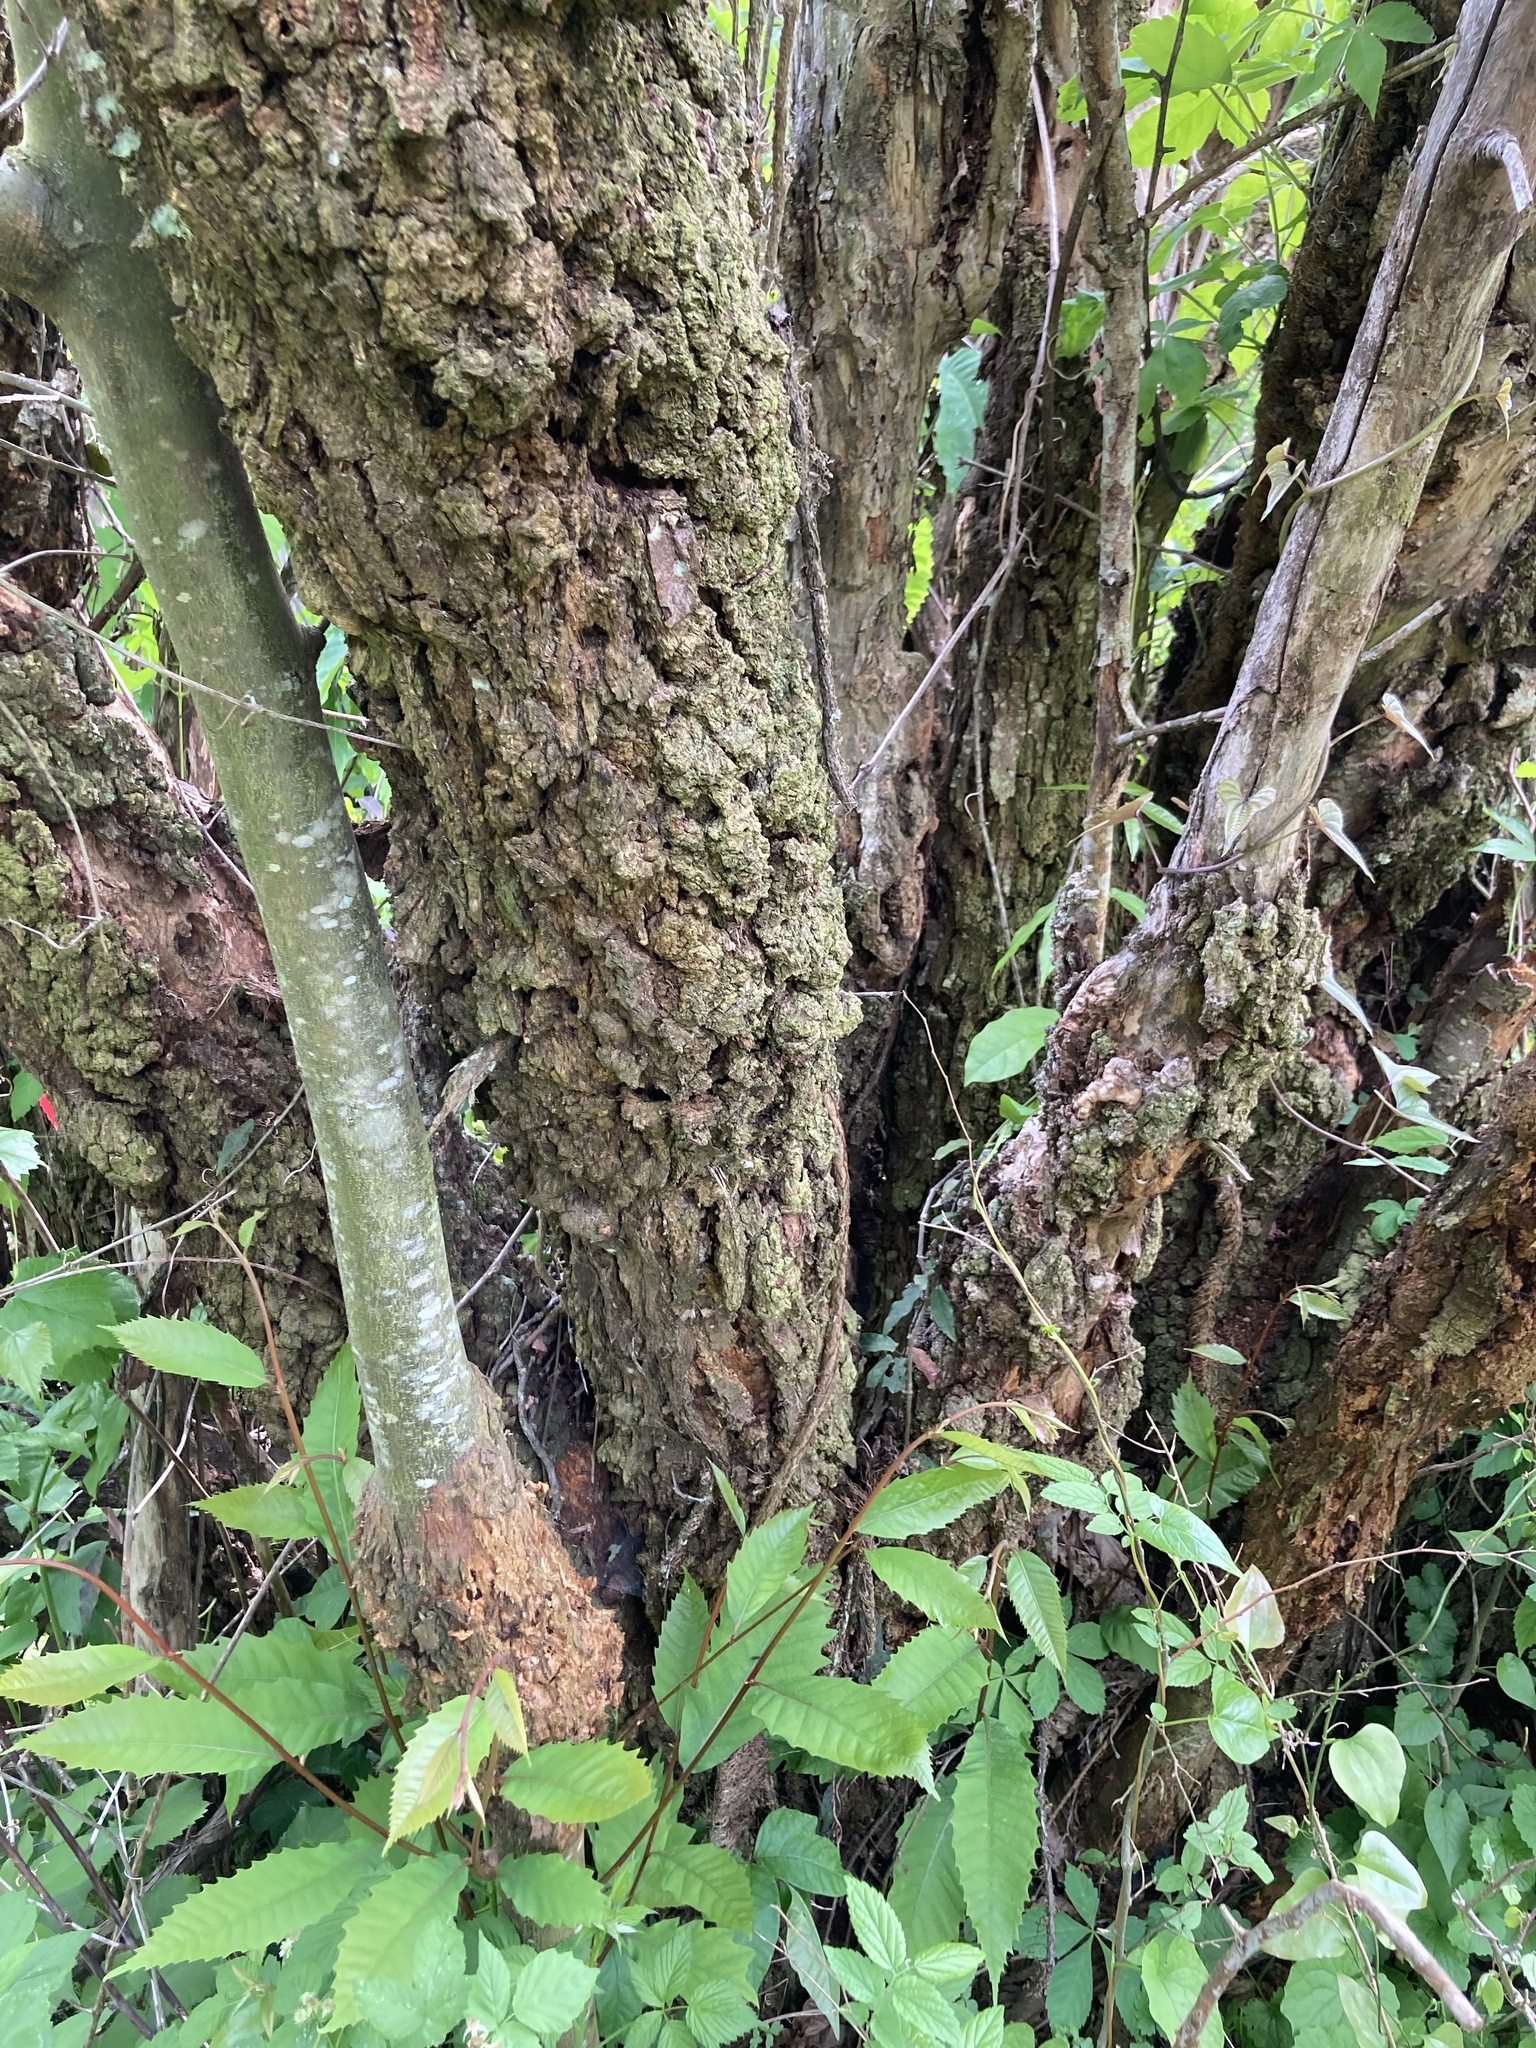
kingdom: Plantae
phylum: Tracheophyta
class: Magnoliopsida
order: Fagales
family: Fagaceae
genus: Castanea
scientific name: Castanea dentata
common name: American chestnut
